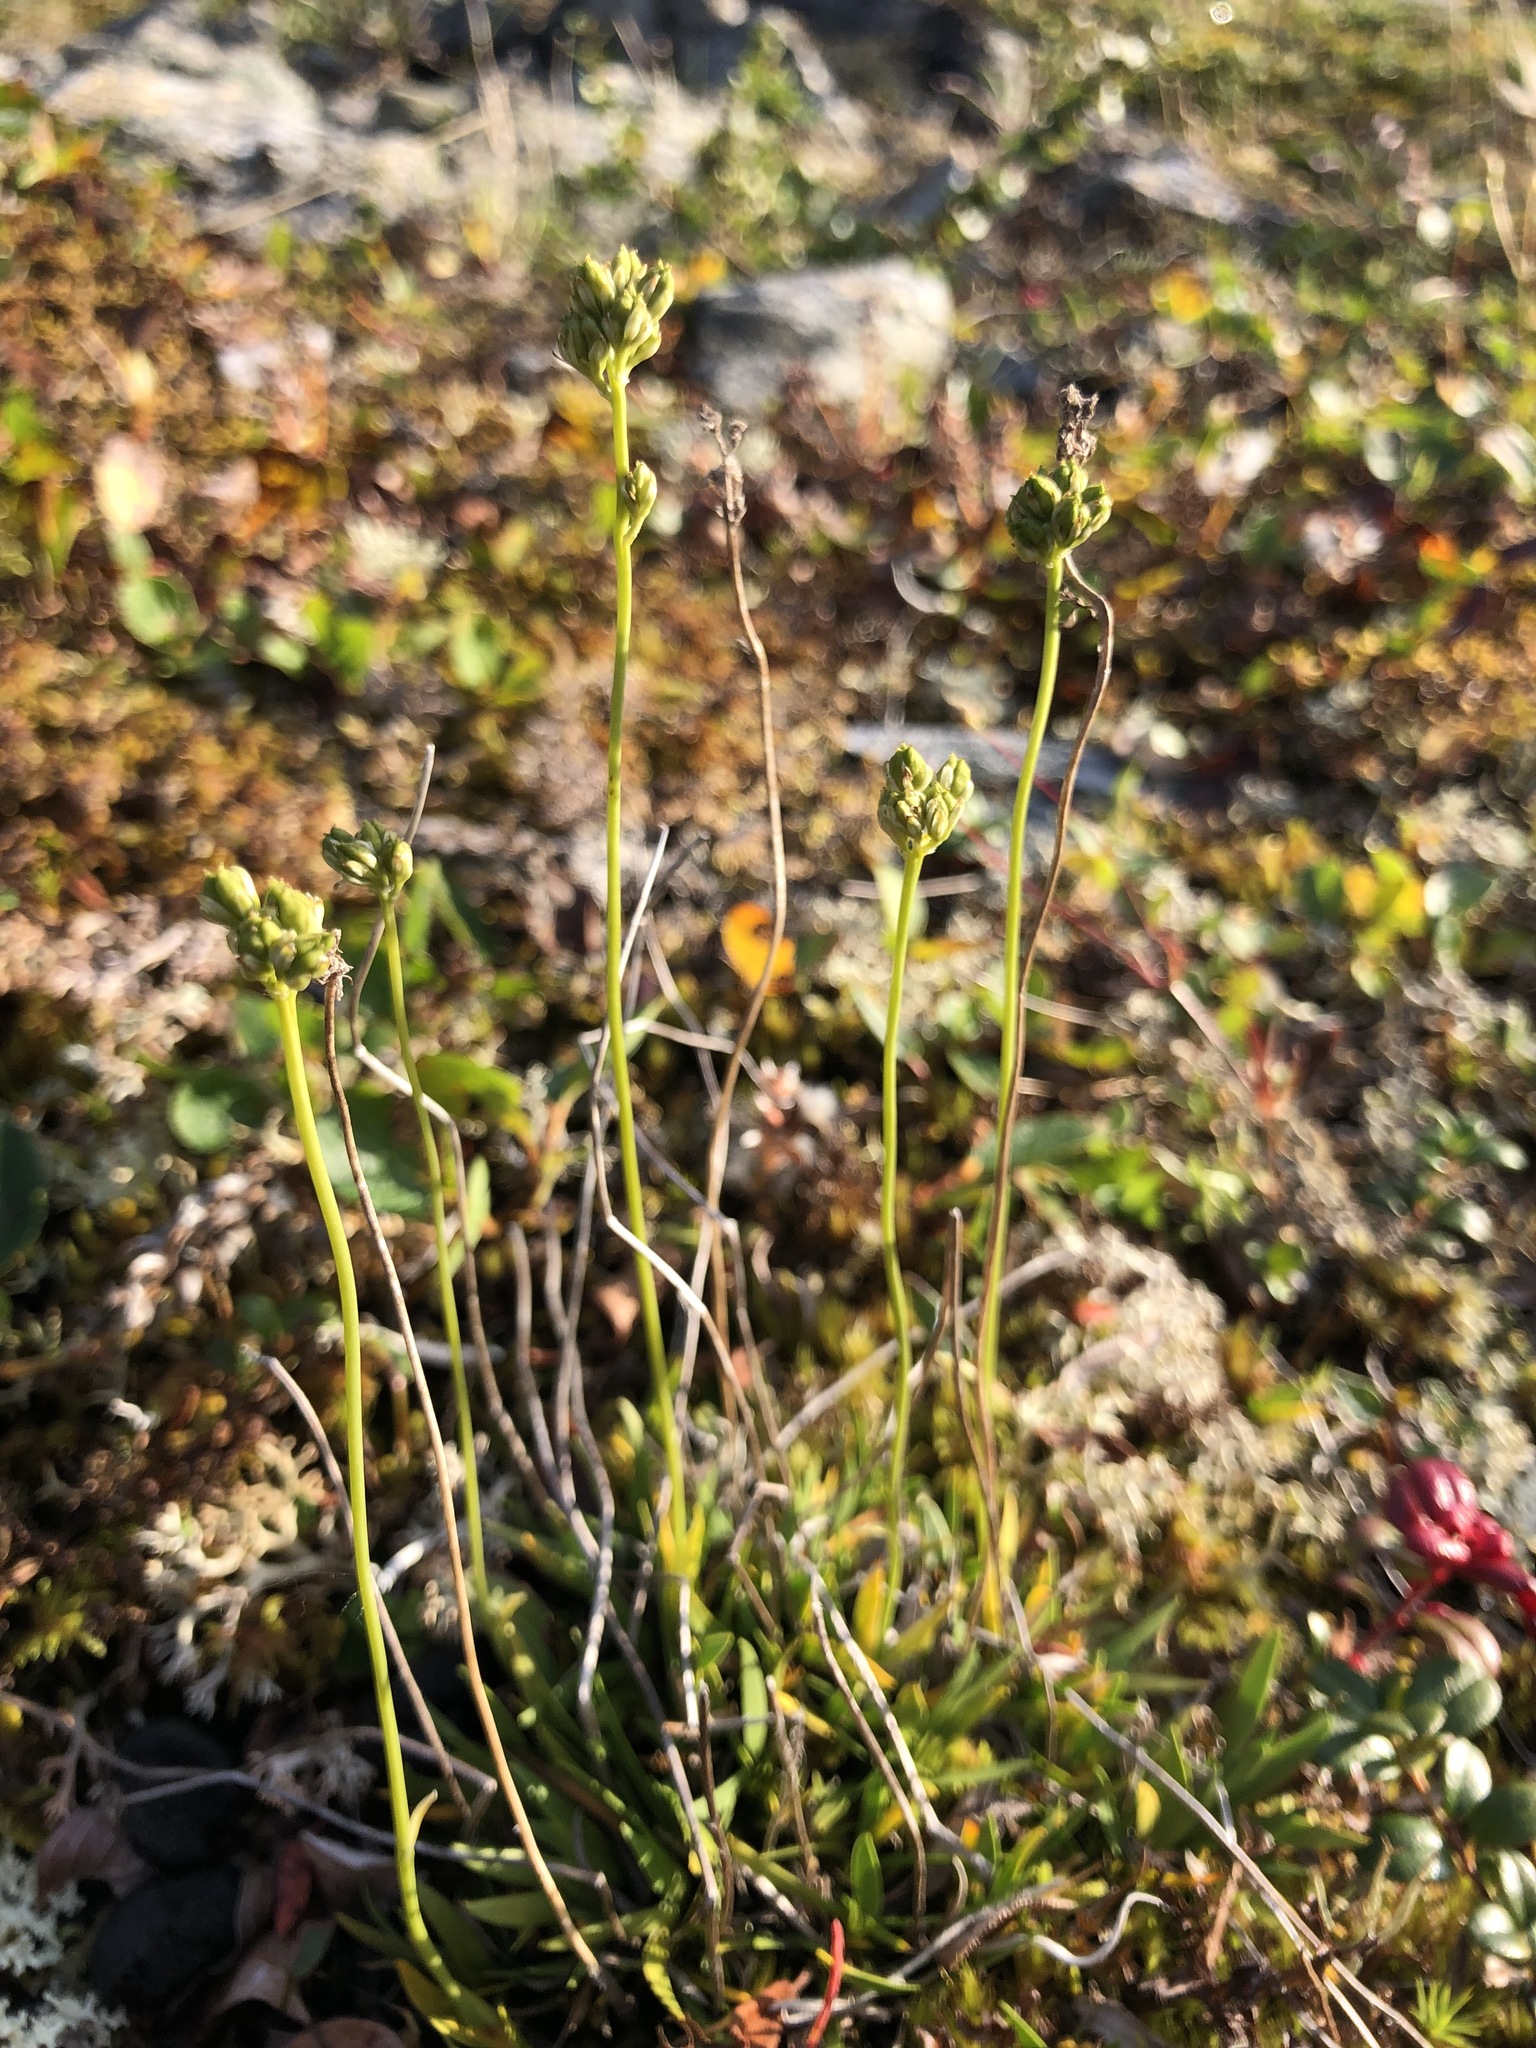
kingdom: Plantae
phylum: Tracheophyta
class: Liliopsida
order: Alismatales
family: Tofieldiaceae
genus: Tofieldia
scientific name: Tofieldia pusilla
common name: Scottish false asphodel
